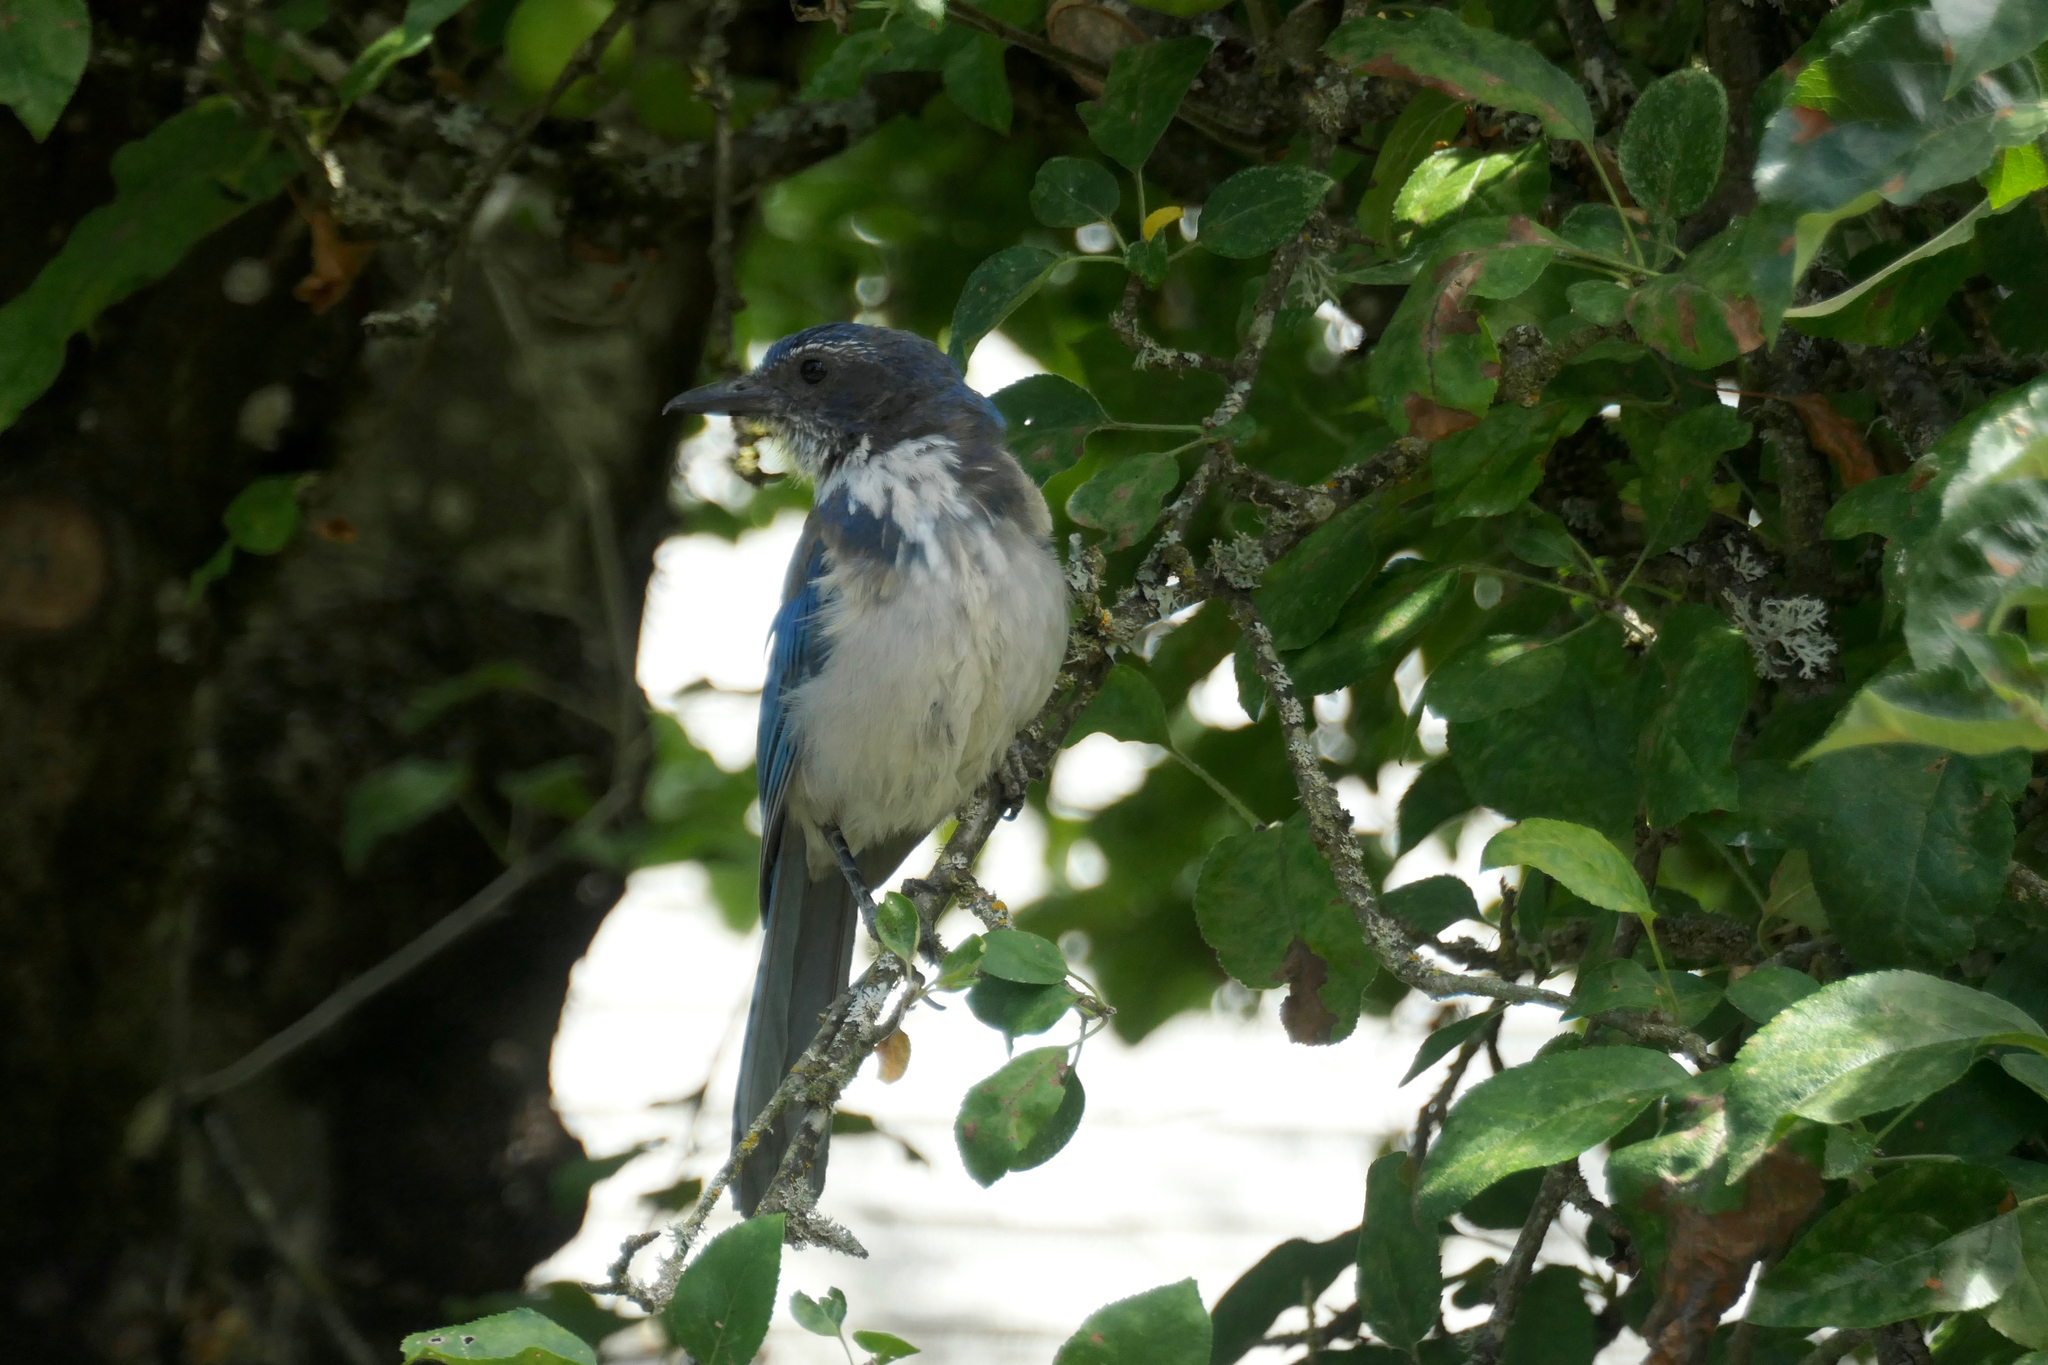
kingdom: Animalia
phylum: Chordata
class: Aves
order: Passeriformes
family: Corvidae
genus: Aphelocoma
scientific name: Aphelocoma californica
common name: California scrub-jay
